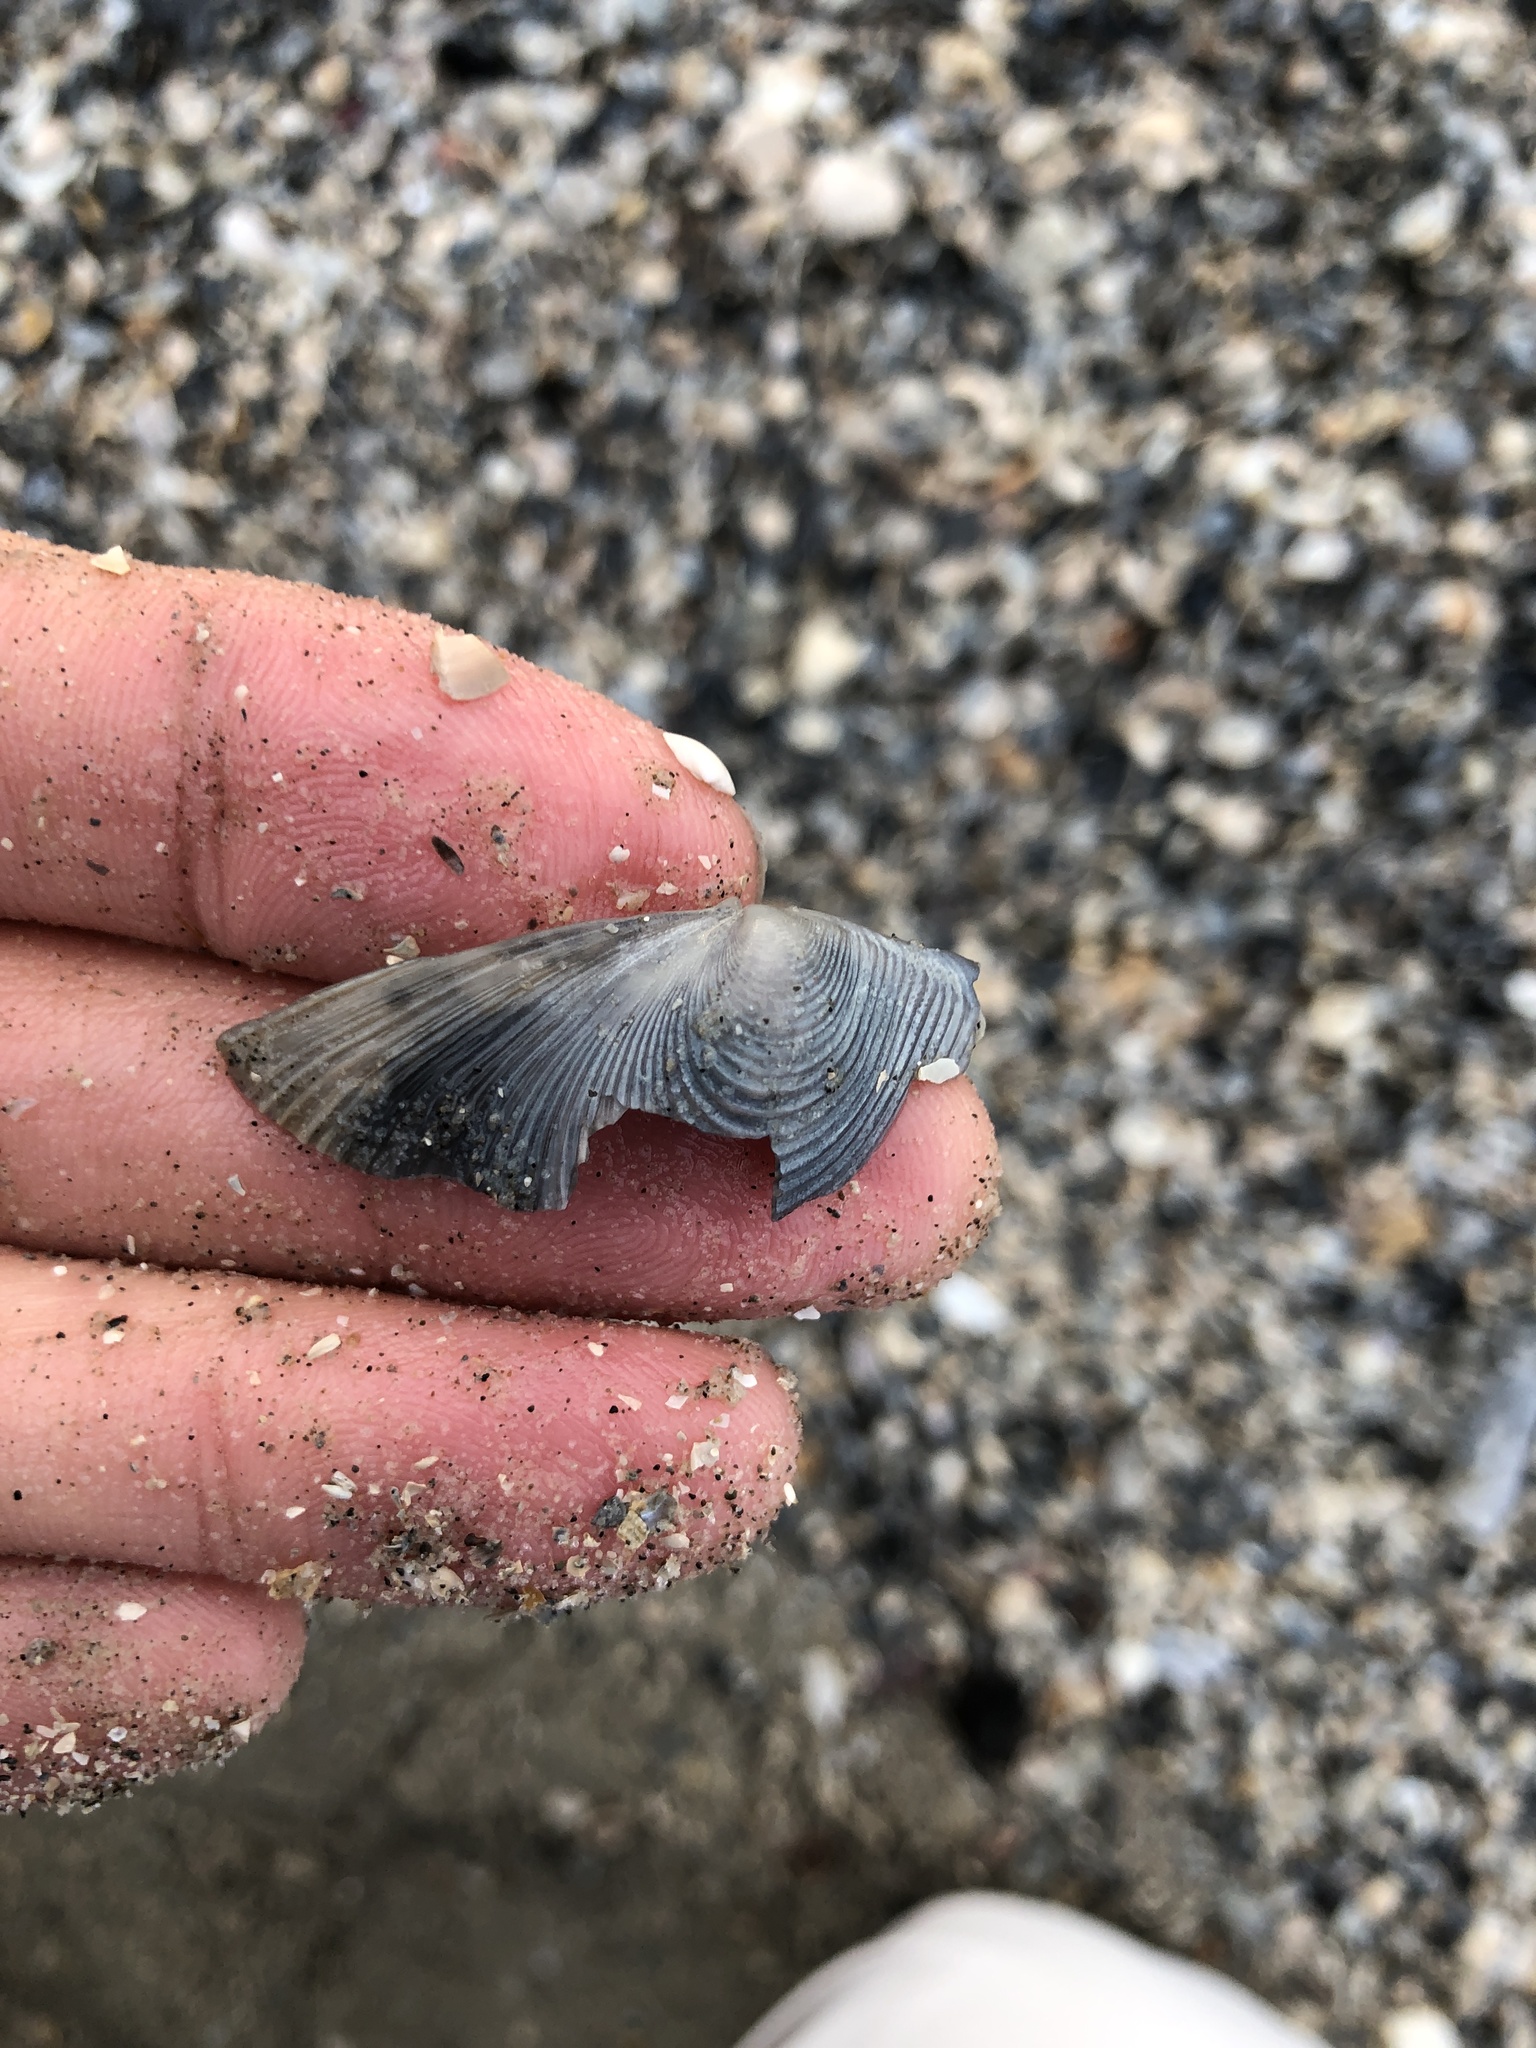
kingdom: Animalia
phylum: Mollusca
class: Bivalvia
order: Venerida
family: Anatinellidae
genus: Raeta
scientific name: Raeta plicatella
